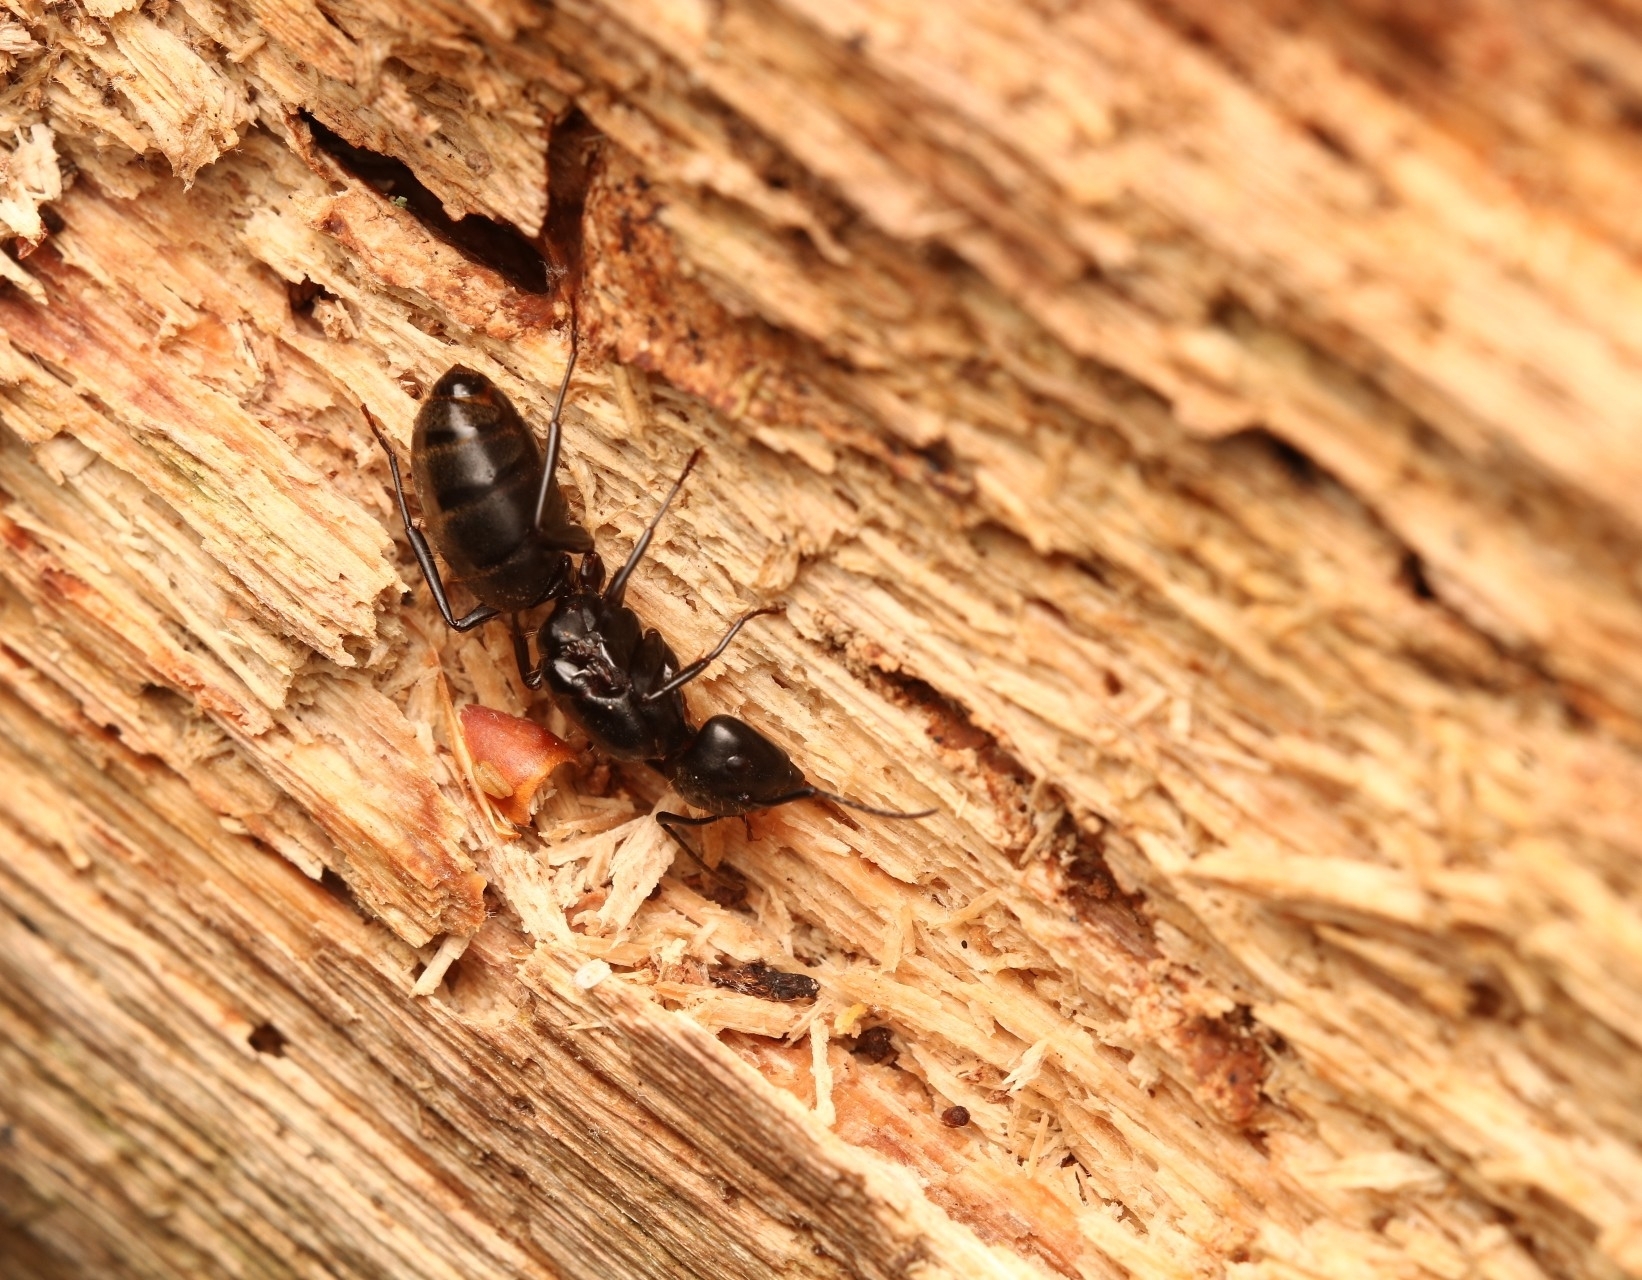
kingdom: Animalia
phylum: Arthropoda
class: Insecta
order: Hymenoptera
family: Formicidae
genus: Camponotus
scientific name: Camponotus pennsylvanicus
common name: Black carpenter ant
